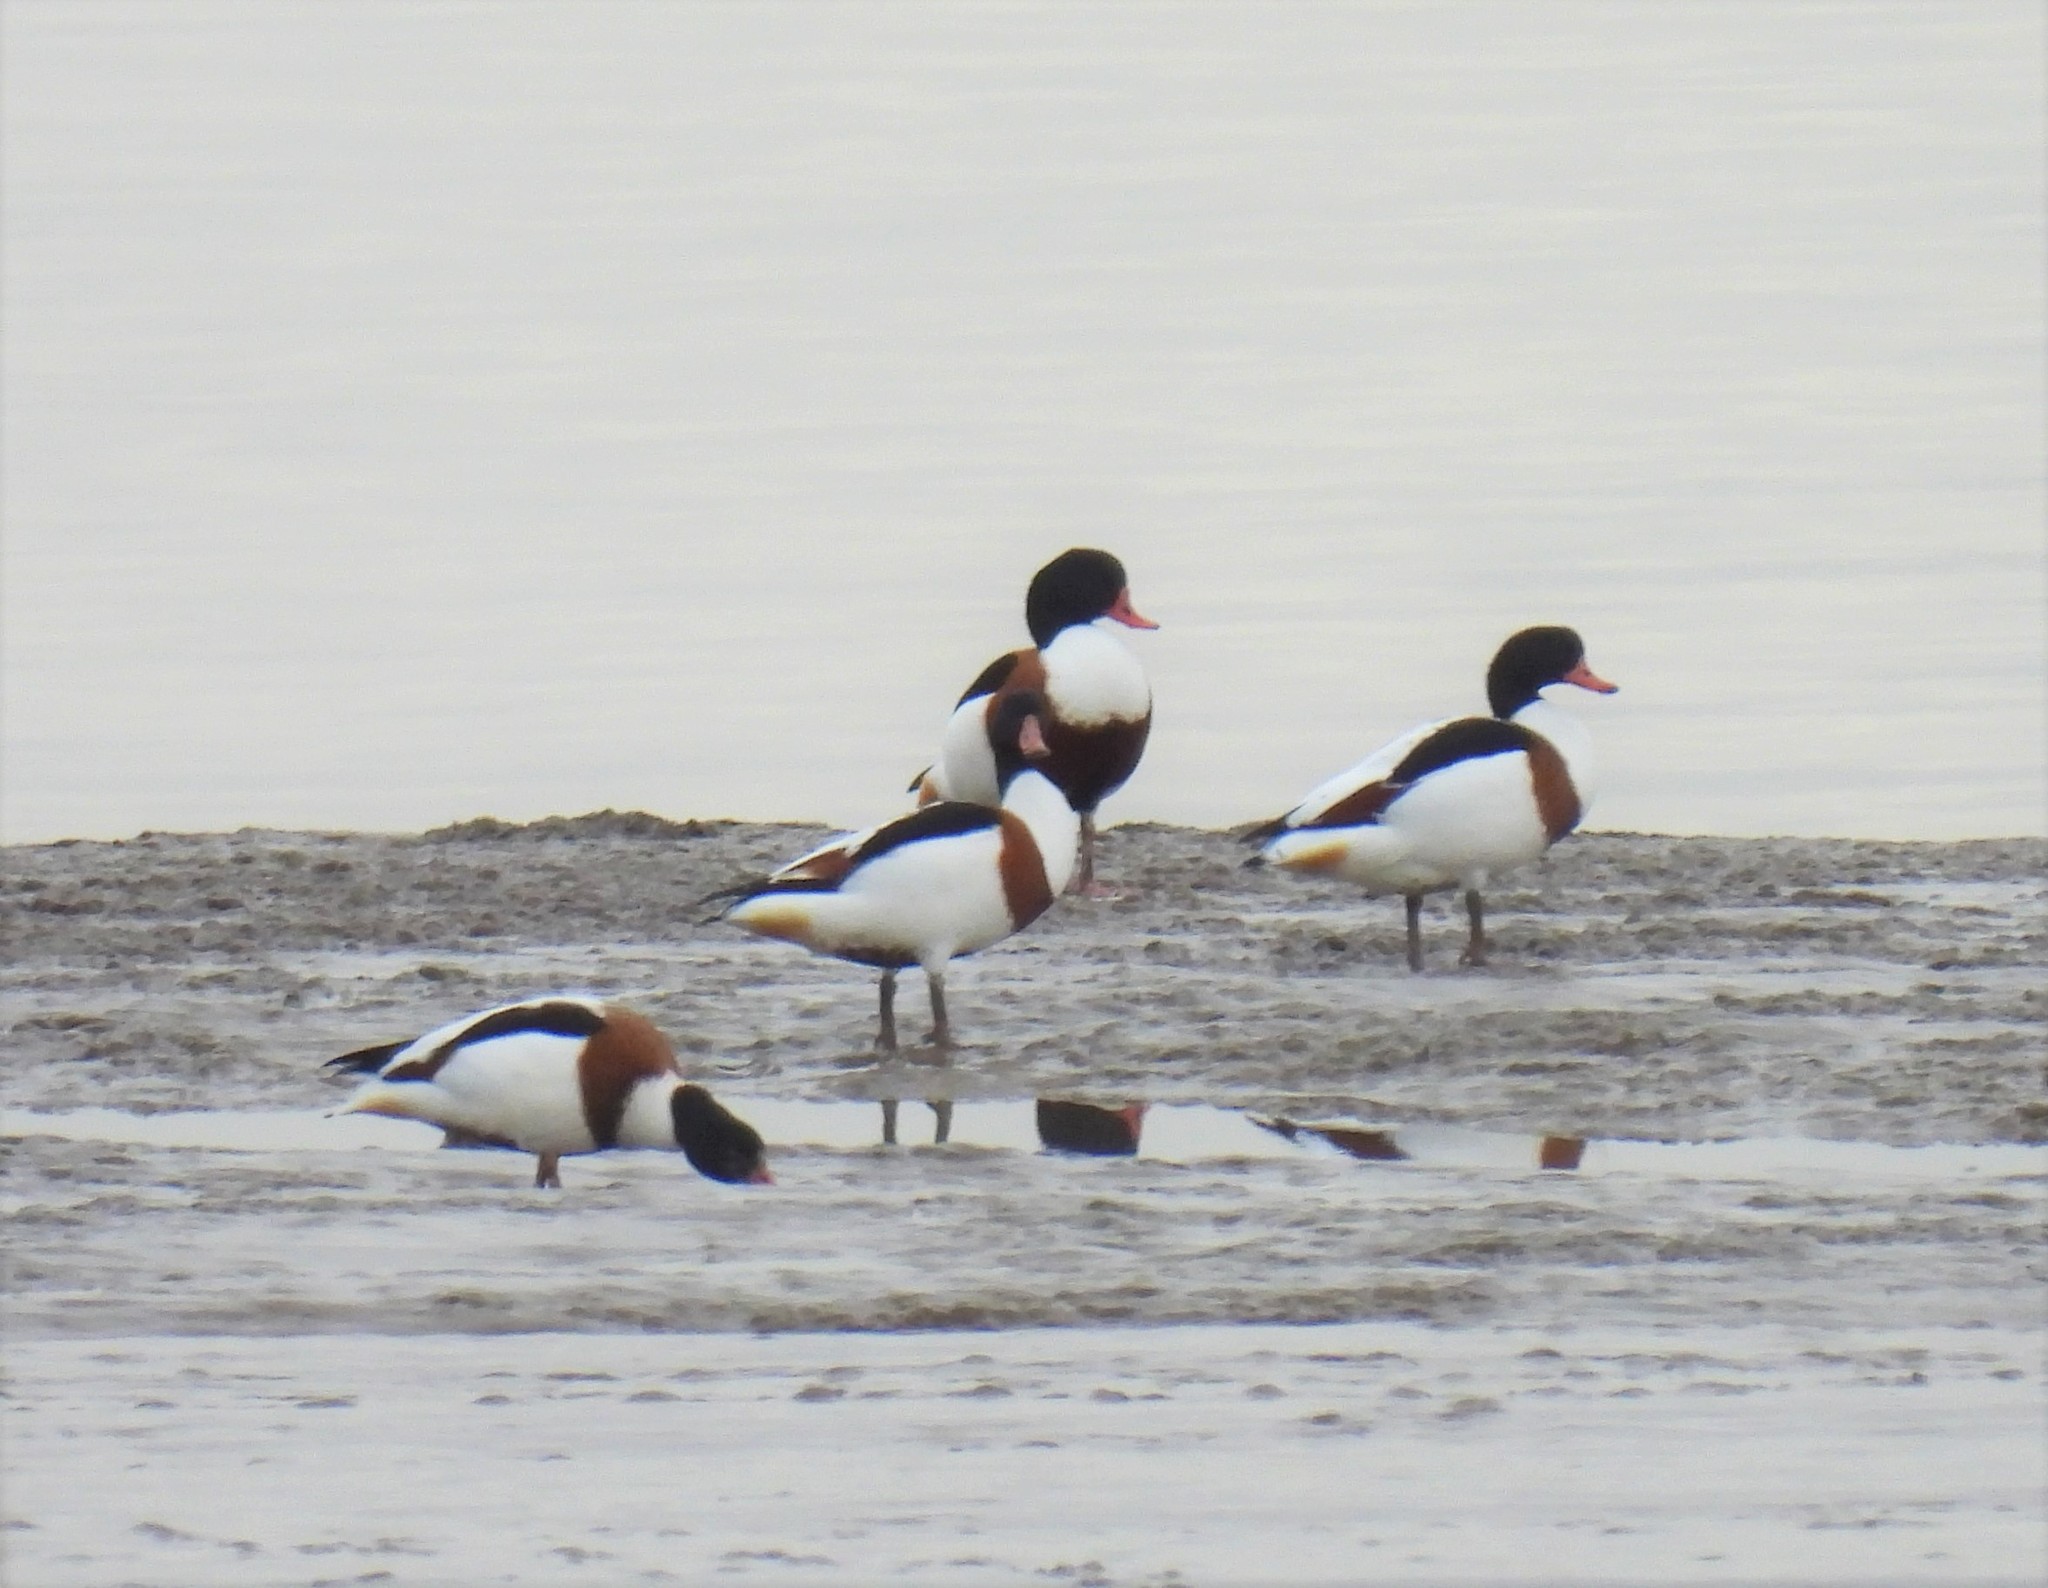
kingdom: Animalia
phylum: Chordata
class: Aves
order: Anseriformes
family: Anatidae
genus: Tadorna
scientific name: Tadorna tadorna
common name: Common shelduck
